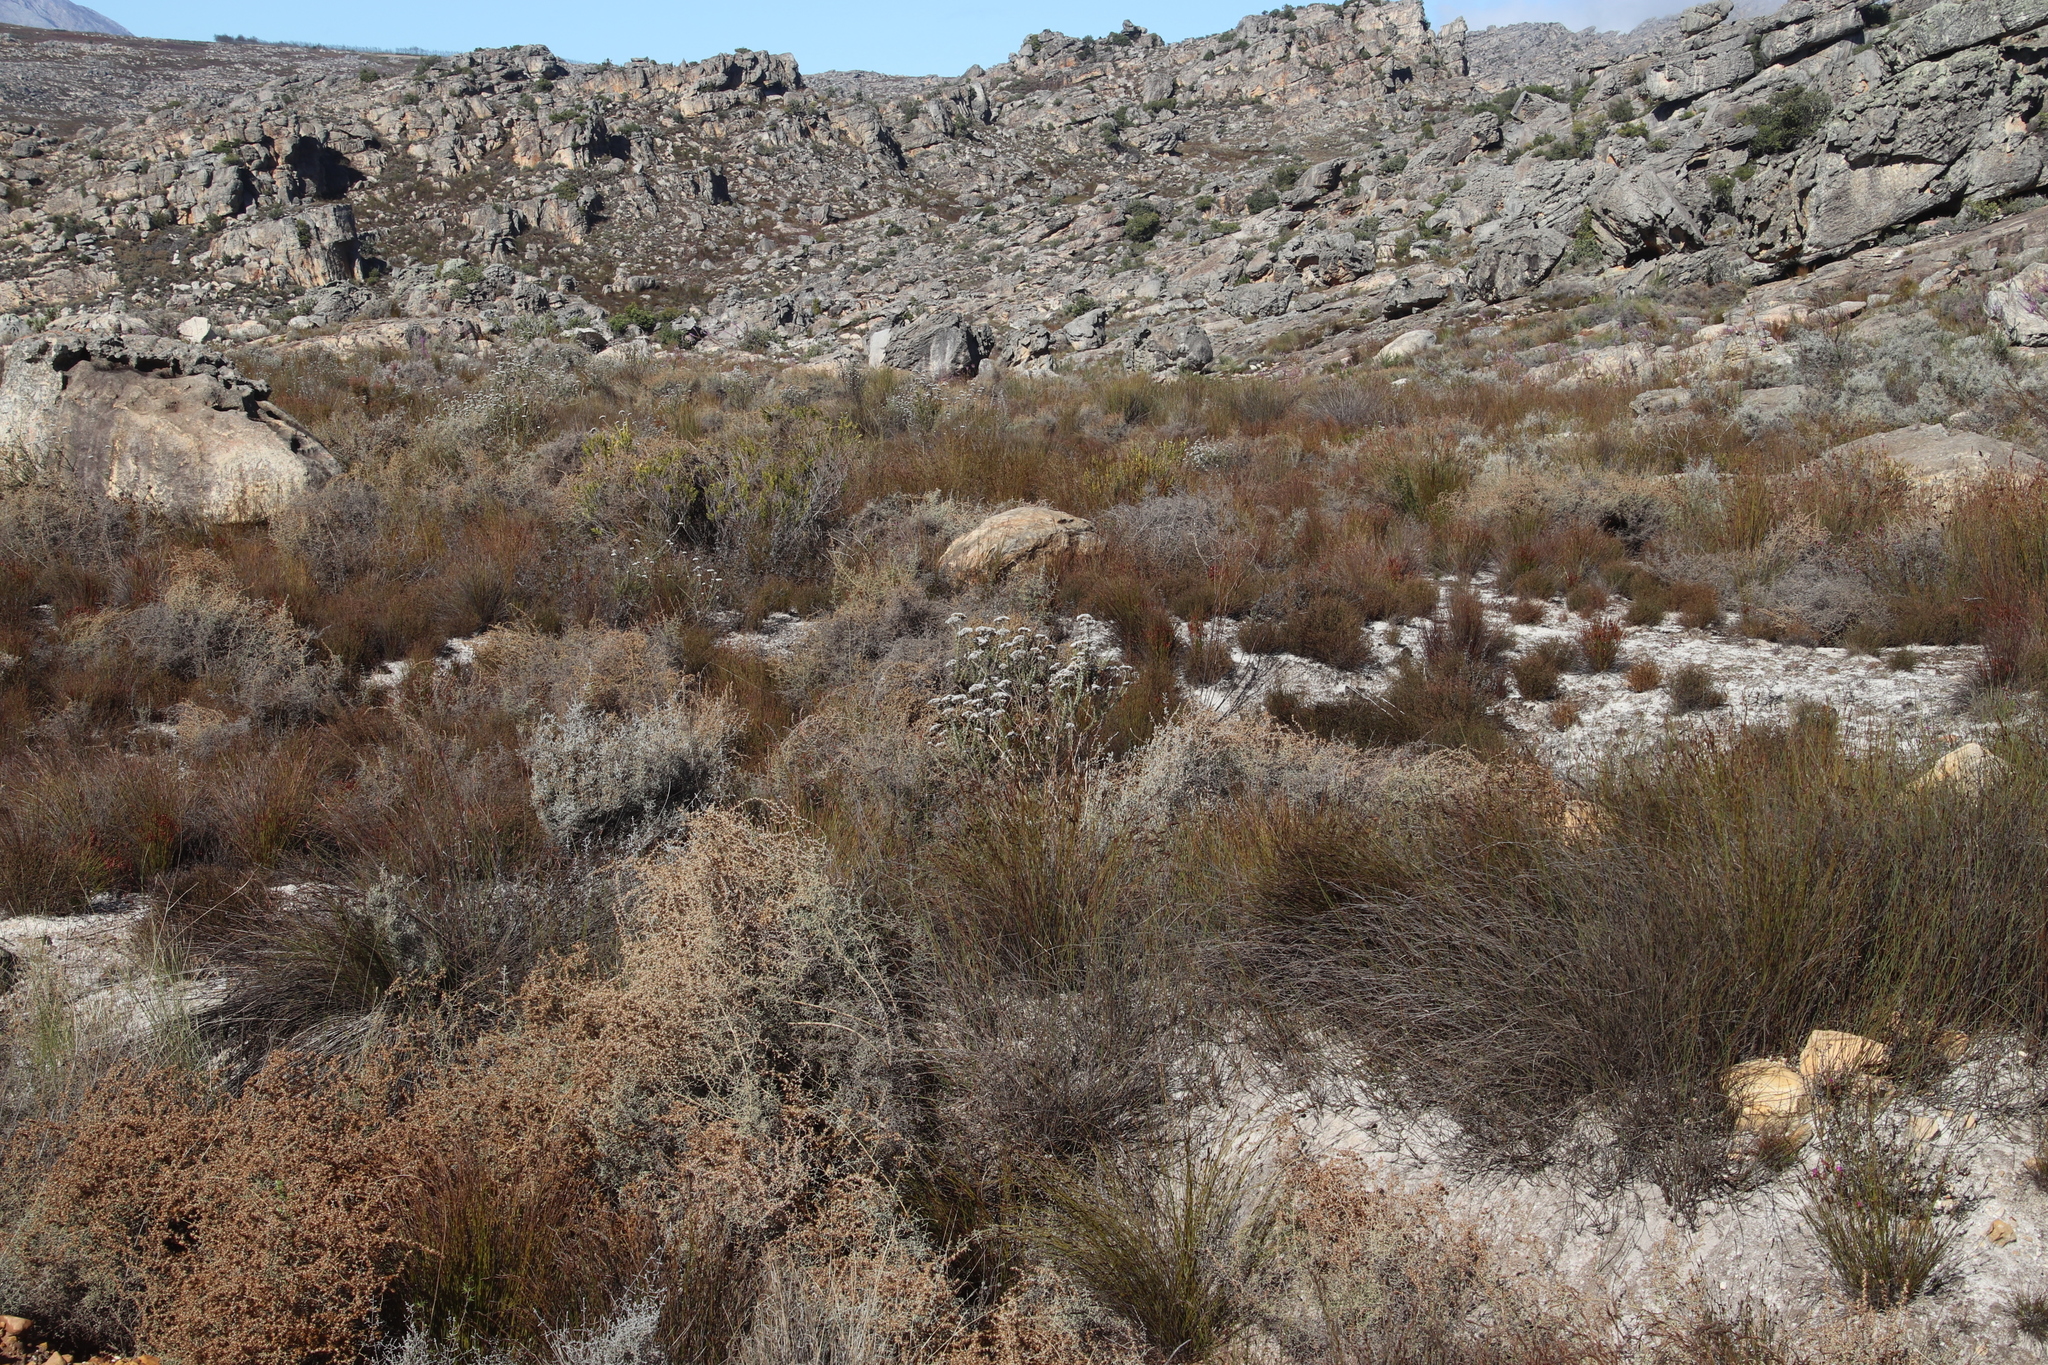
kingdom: Plantae
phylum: Tracheophyta
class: Magnoliopsida
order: Asterales
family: Asteraceae
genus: Seriphium
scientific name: Seriphium plumosum
